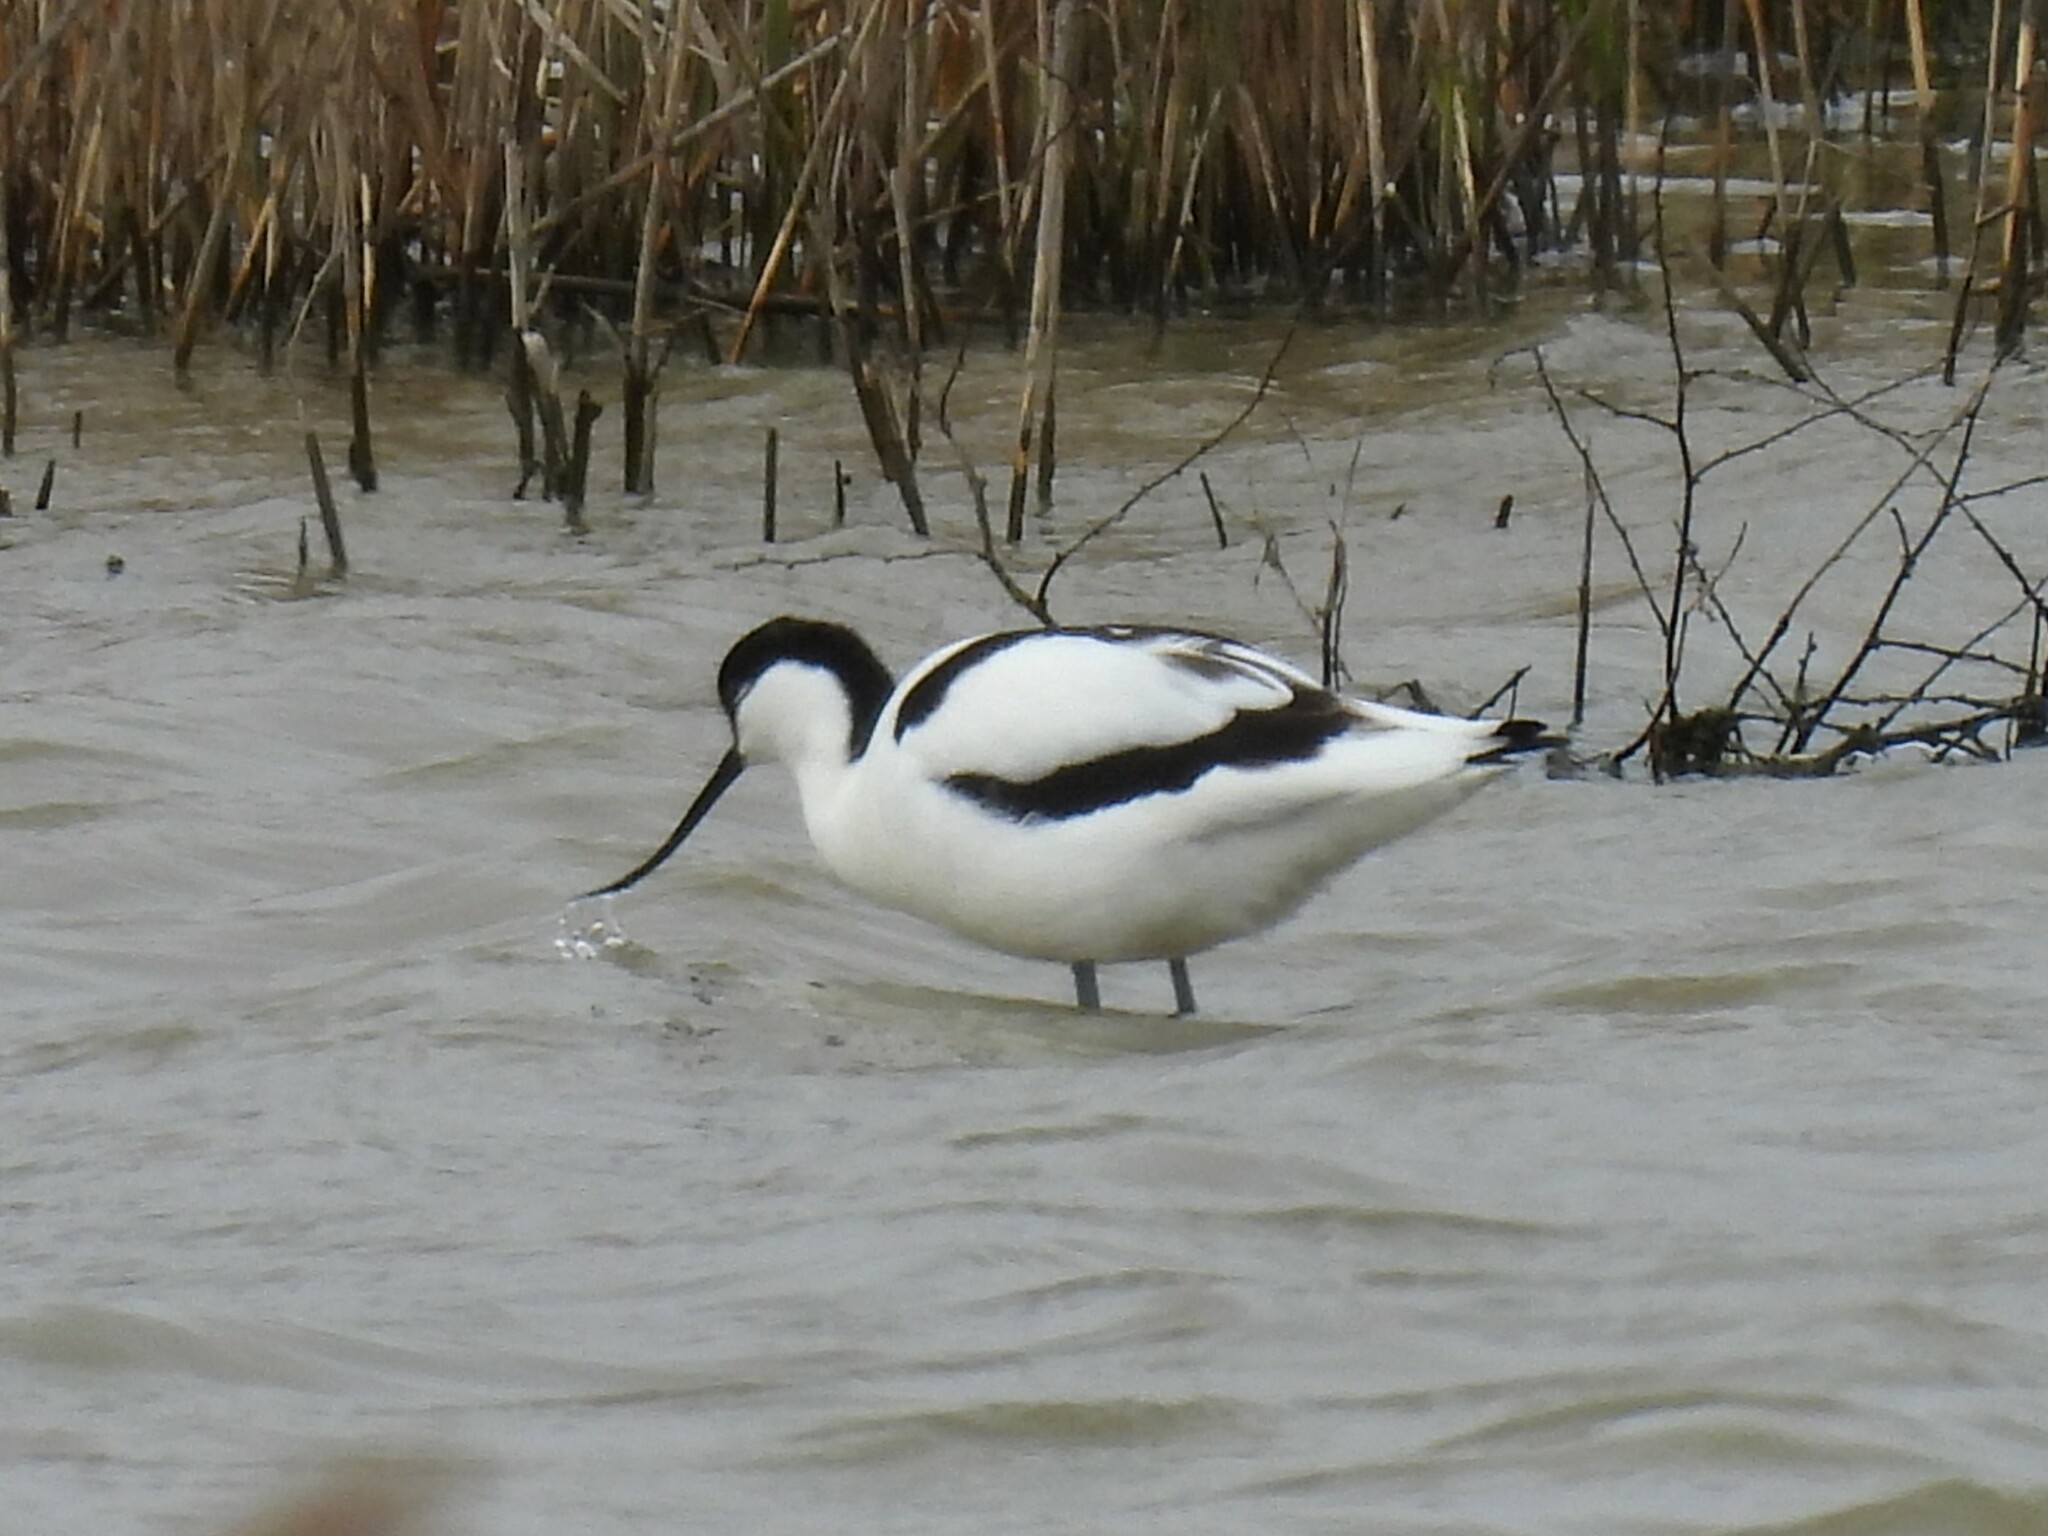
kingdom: Animalia
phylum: Chordata
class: Aves
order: Charadriiformes
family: Recurvirostridae
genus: Recurvirostra
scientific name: Recurvirostra avosetta
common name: Pied avocet
